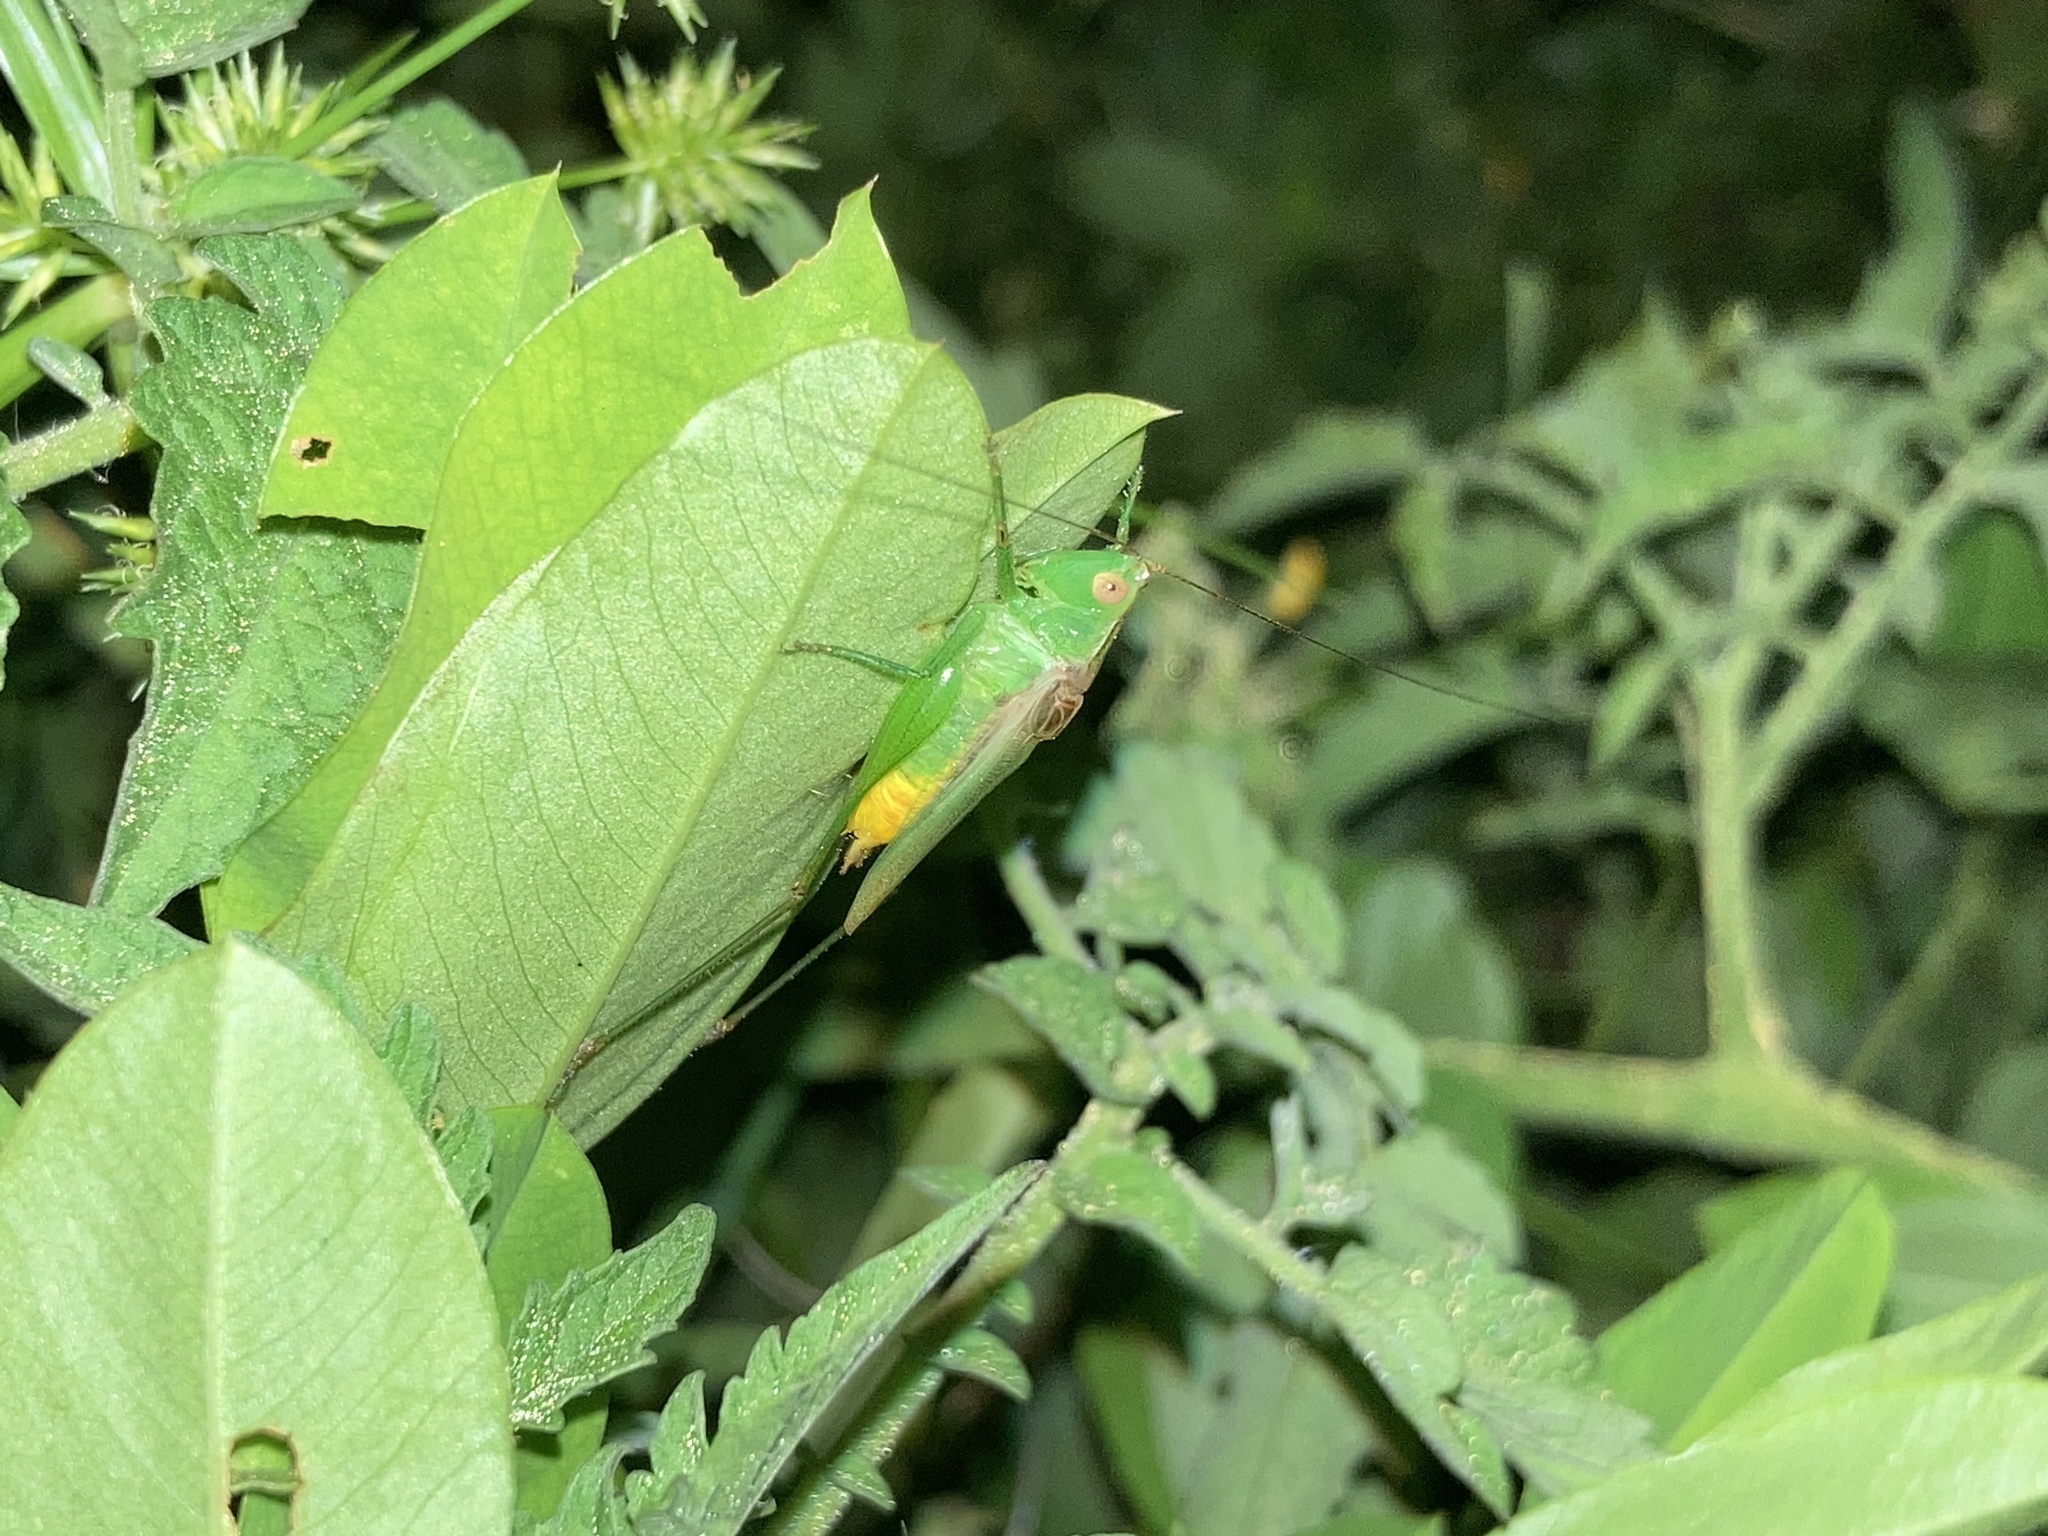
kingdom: Animalia
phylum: Arthropoda
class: Insecta
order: Orthoptera
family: Tettigoniidae
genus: Conocephalus
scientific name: Conocephalus cinereus
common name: Caribbean meadow katydid
